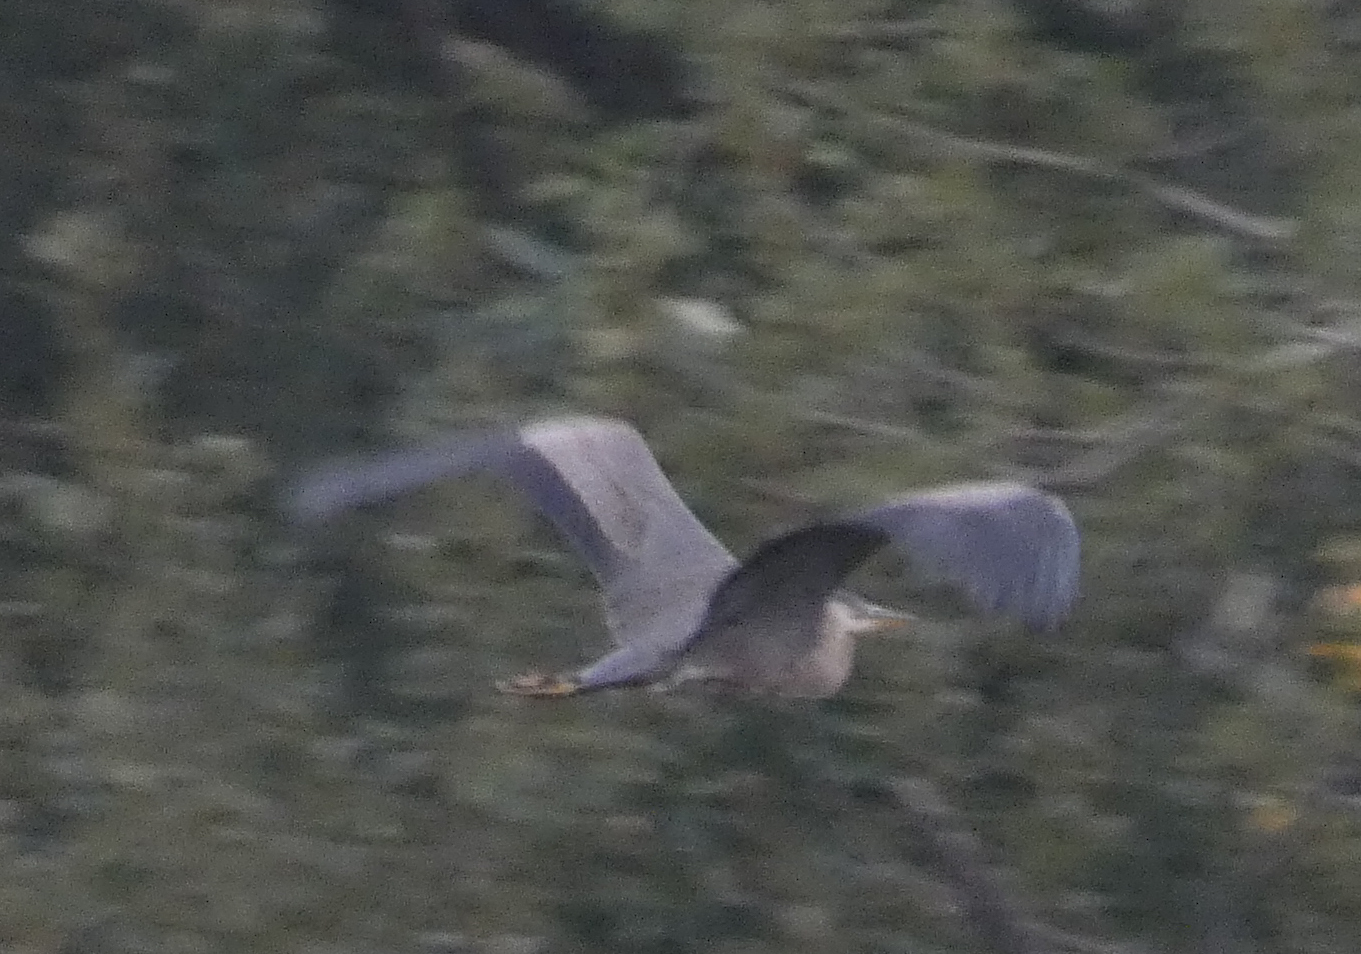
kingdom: Animalia
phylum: Chordata
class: Aves
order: Pelecaniformes
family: Ardeidae
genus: Ardea
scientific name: Ardea herodias
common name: Great blue heron
